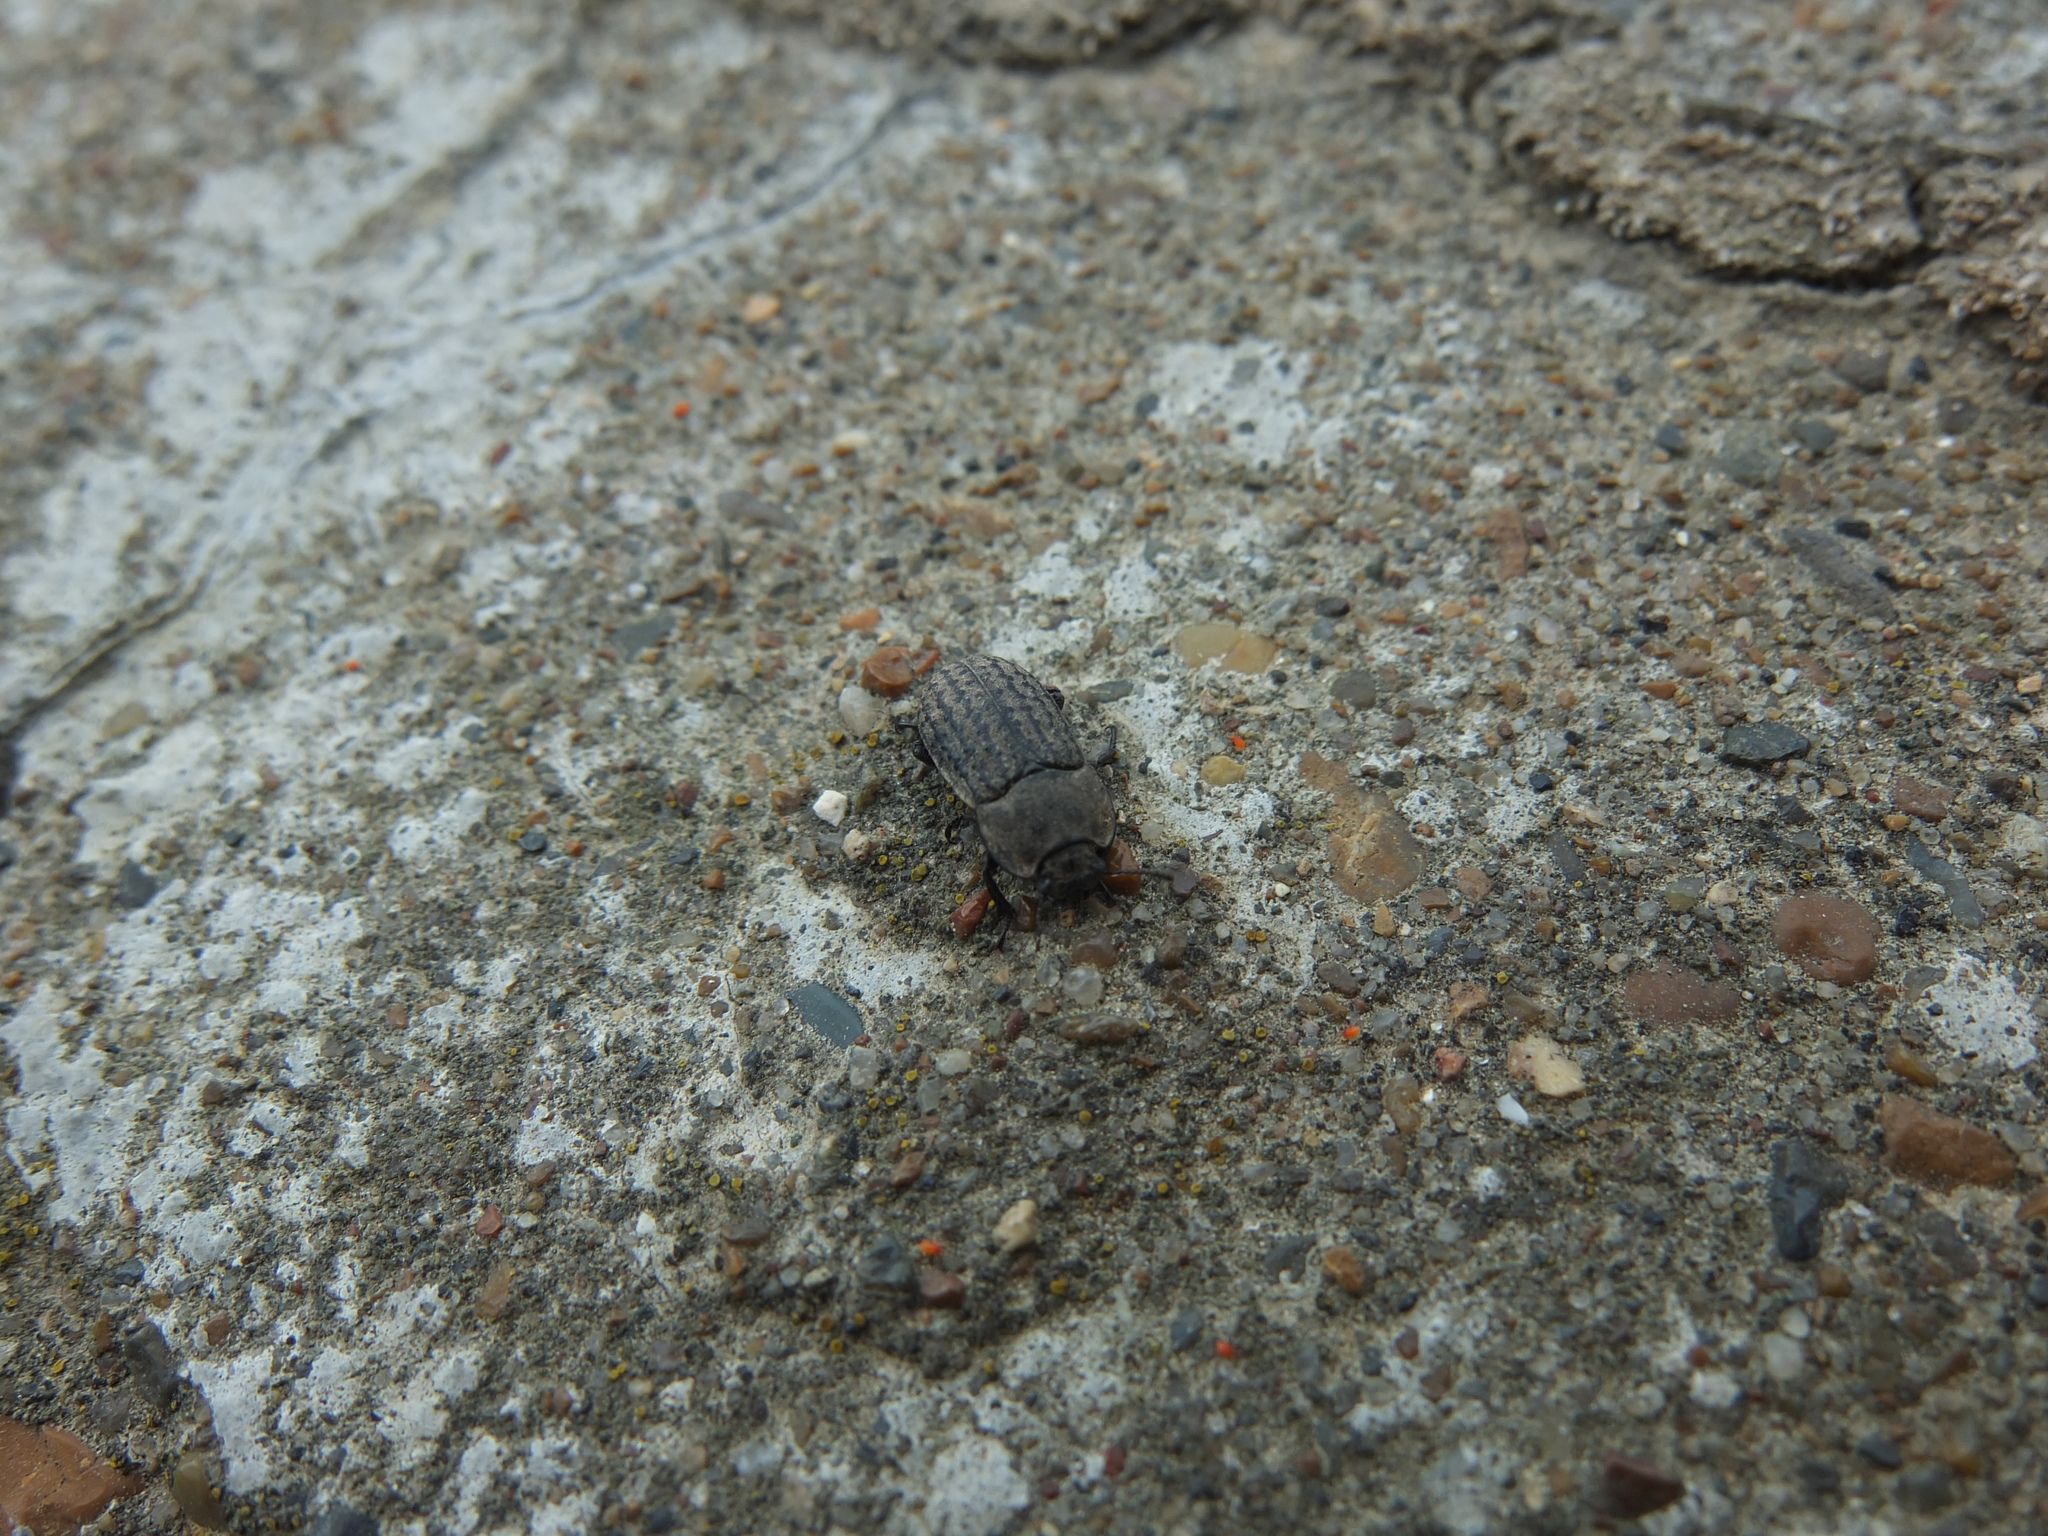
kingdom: Animalia
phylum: Arthropoda
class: Insecta
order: Coleoptera
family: Tenebrionidae
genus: Opatrum
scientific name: Opatrum sabulosum
